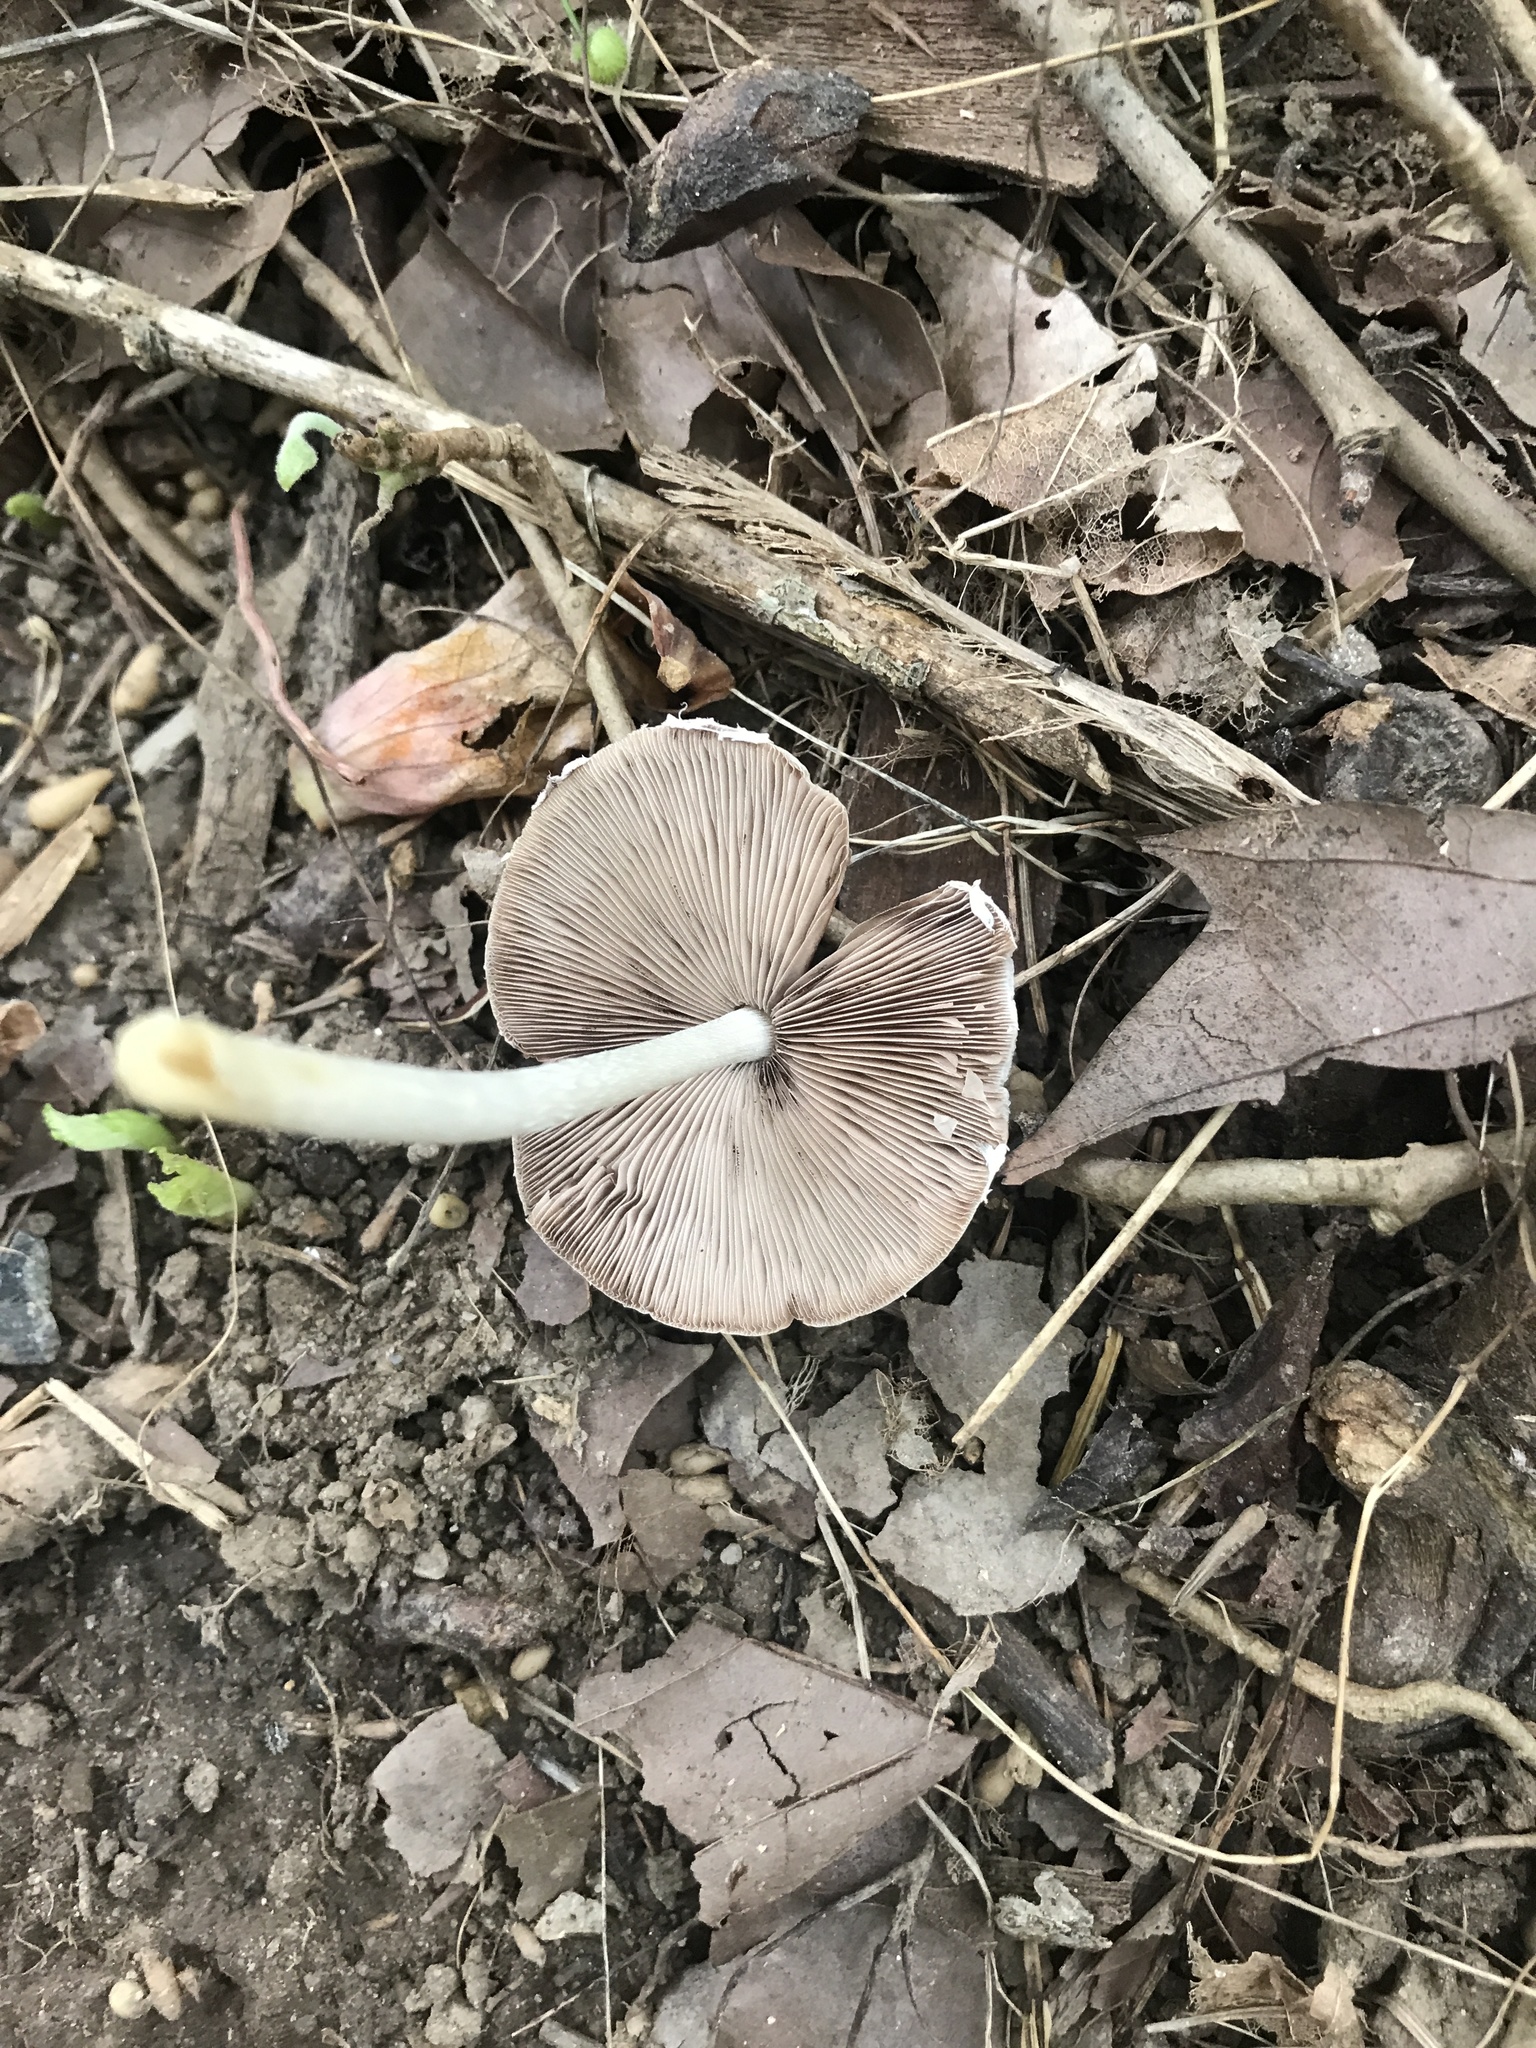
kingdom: Fungi
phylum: Basidiomycota
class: Agaricomycetes
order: Agaricales
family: Psathyrellaceae
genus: Candolleomyces
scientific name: Candolleomyces candolleanus
